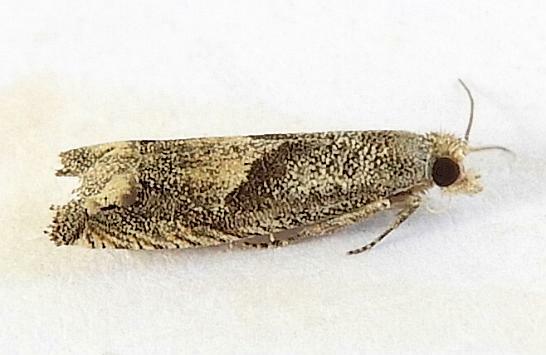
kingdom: Animalia
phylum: Arthropoda
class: Insecta
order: Lepidoptera
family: Tortricidae
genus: Epiblema
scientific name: Epiblema strenuana
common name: Ragweed borer moth
